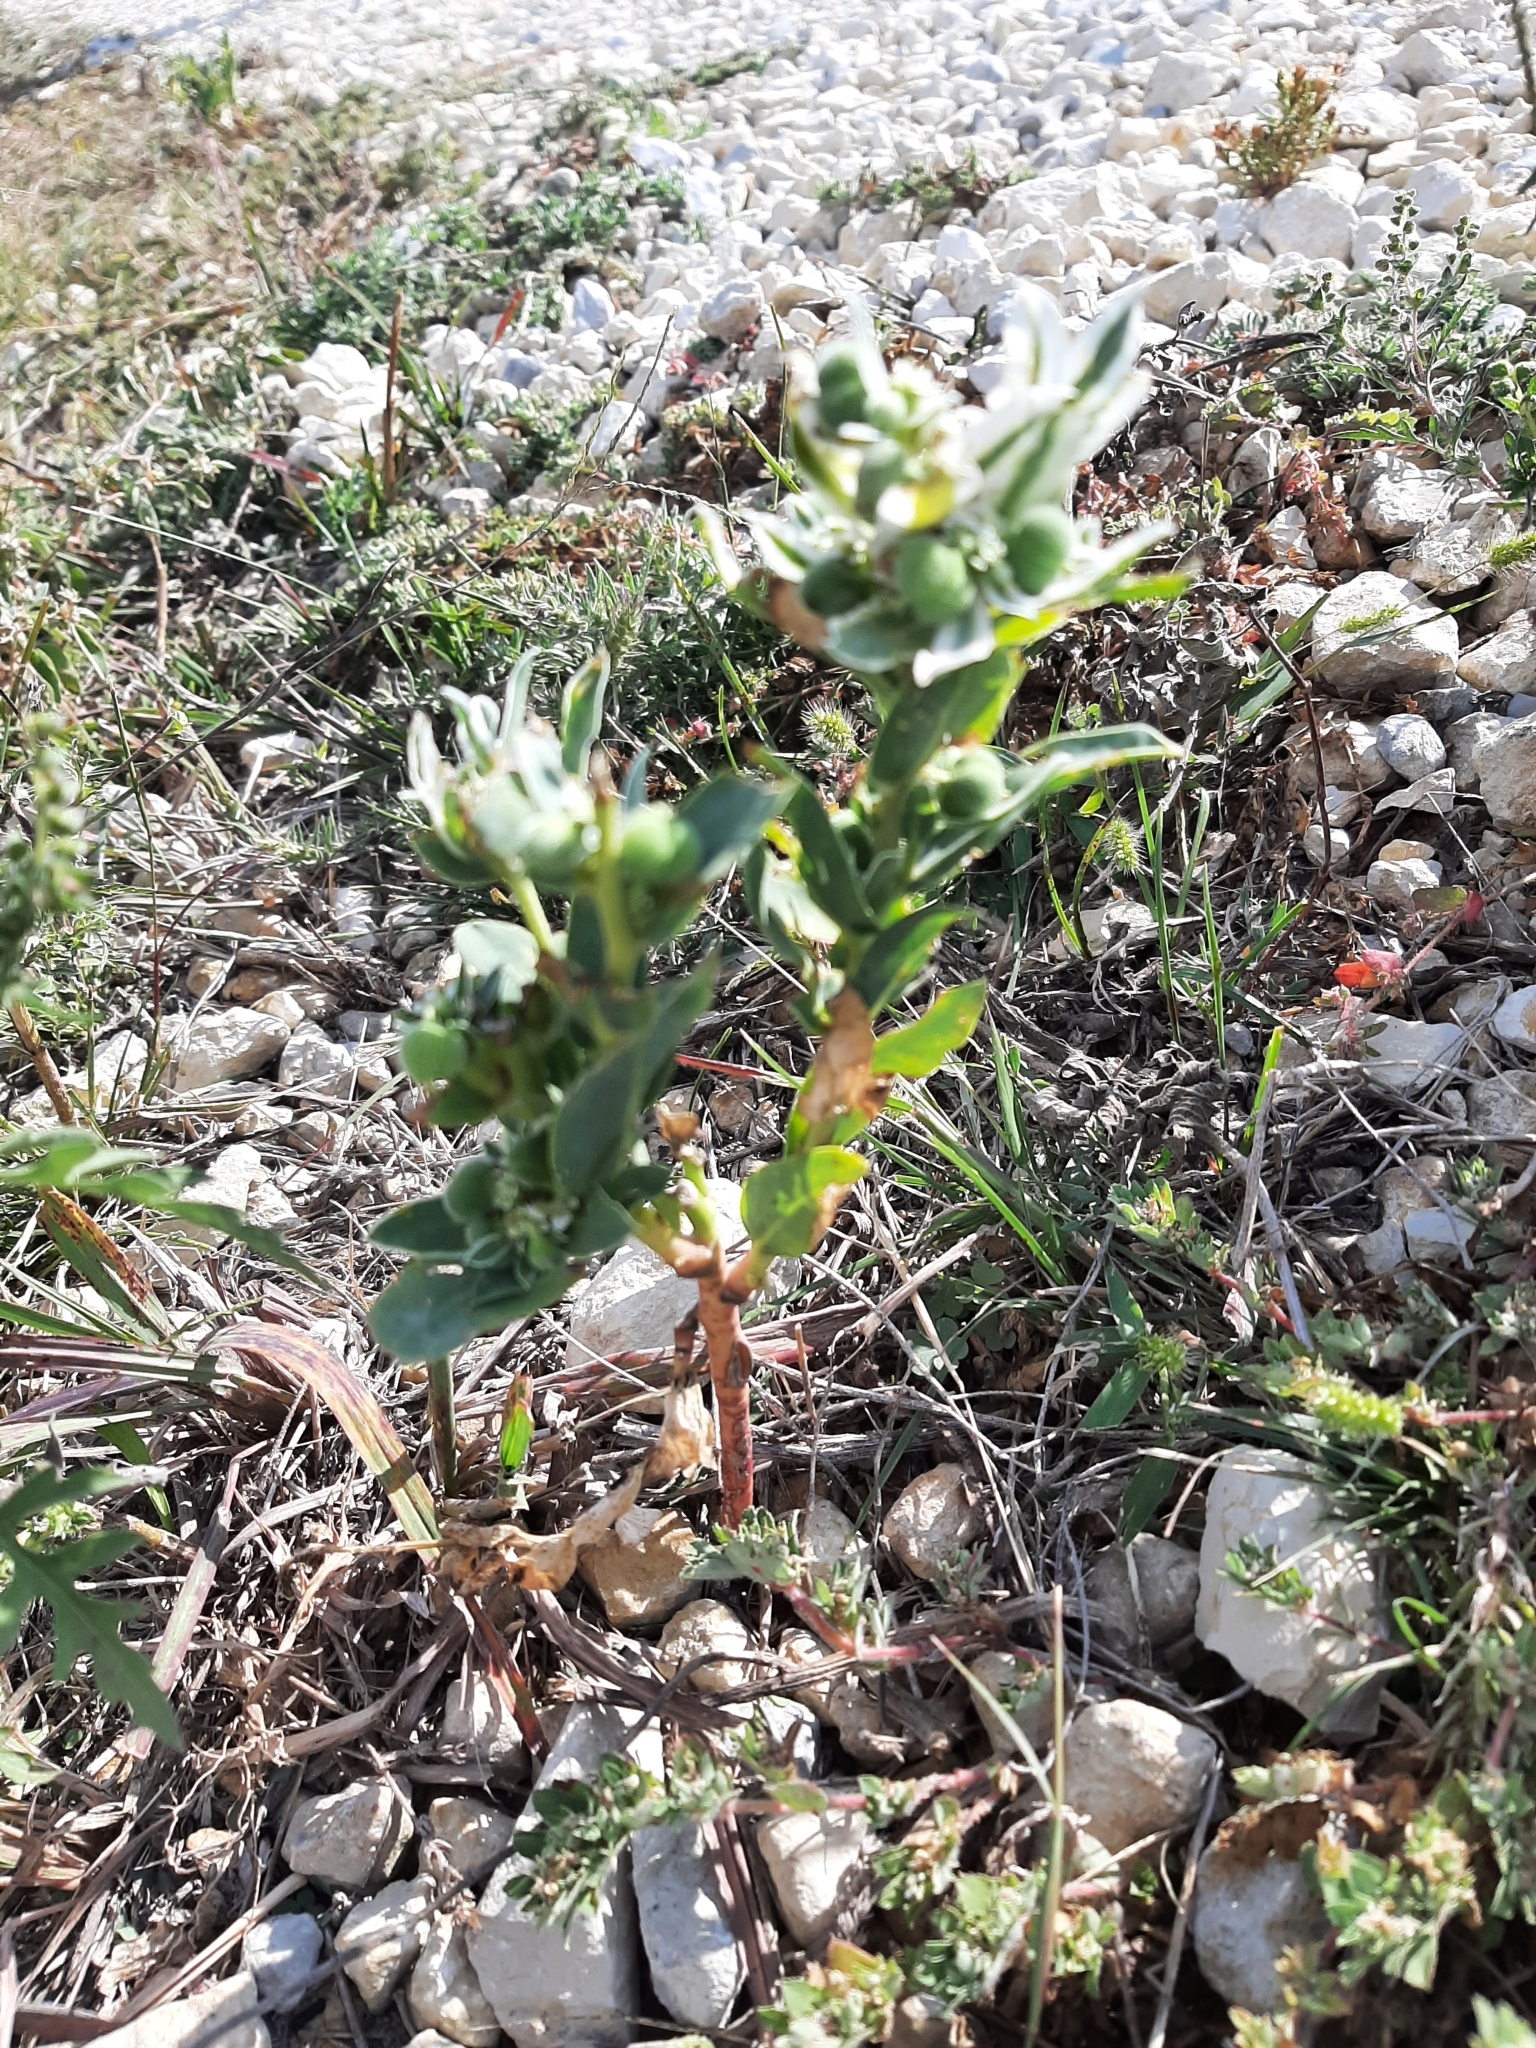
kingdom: Plantae
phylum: Tracheophyta
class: Magnoliopsida
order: Malpighiales
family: Euphorbiaceae
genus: Euphorbia
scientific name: Euphorbia marginata
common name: Ghostweed
